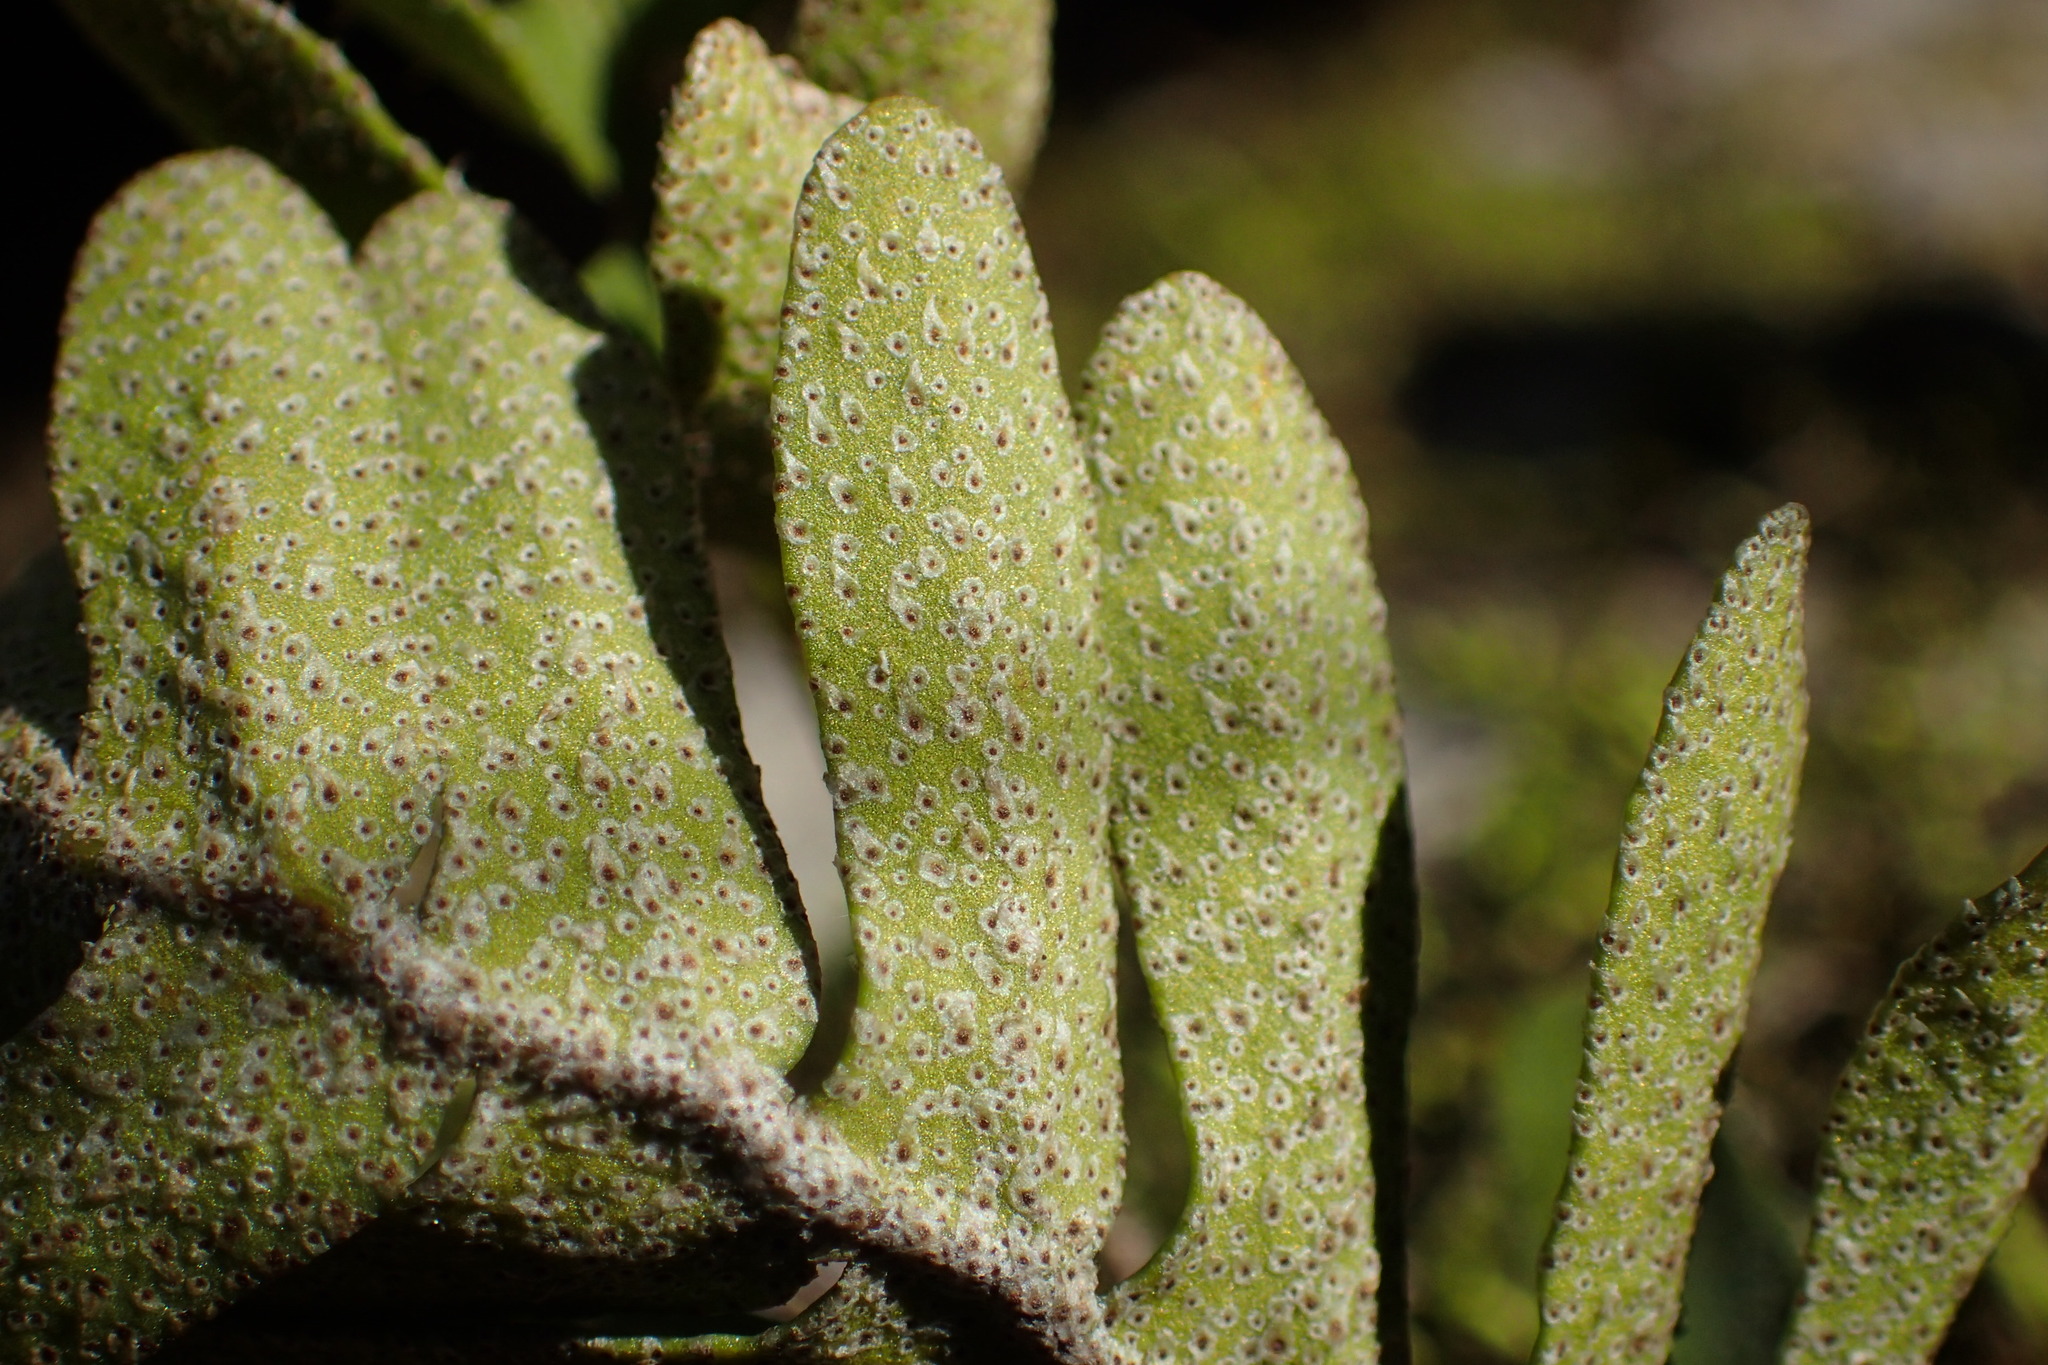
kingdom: Plantae
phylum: Tracheophyta
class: Polypodiopsida
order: Polypodiales
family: Polypodiaceae
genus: Pleopeltis
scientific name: Pleopeltis michauxiana
